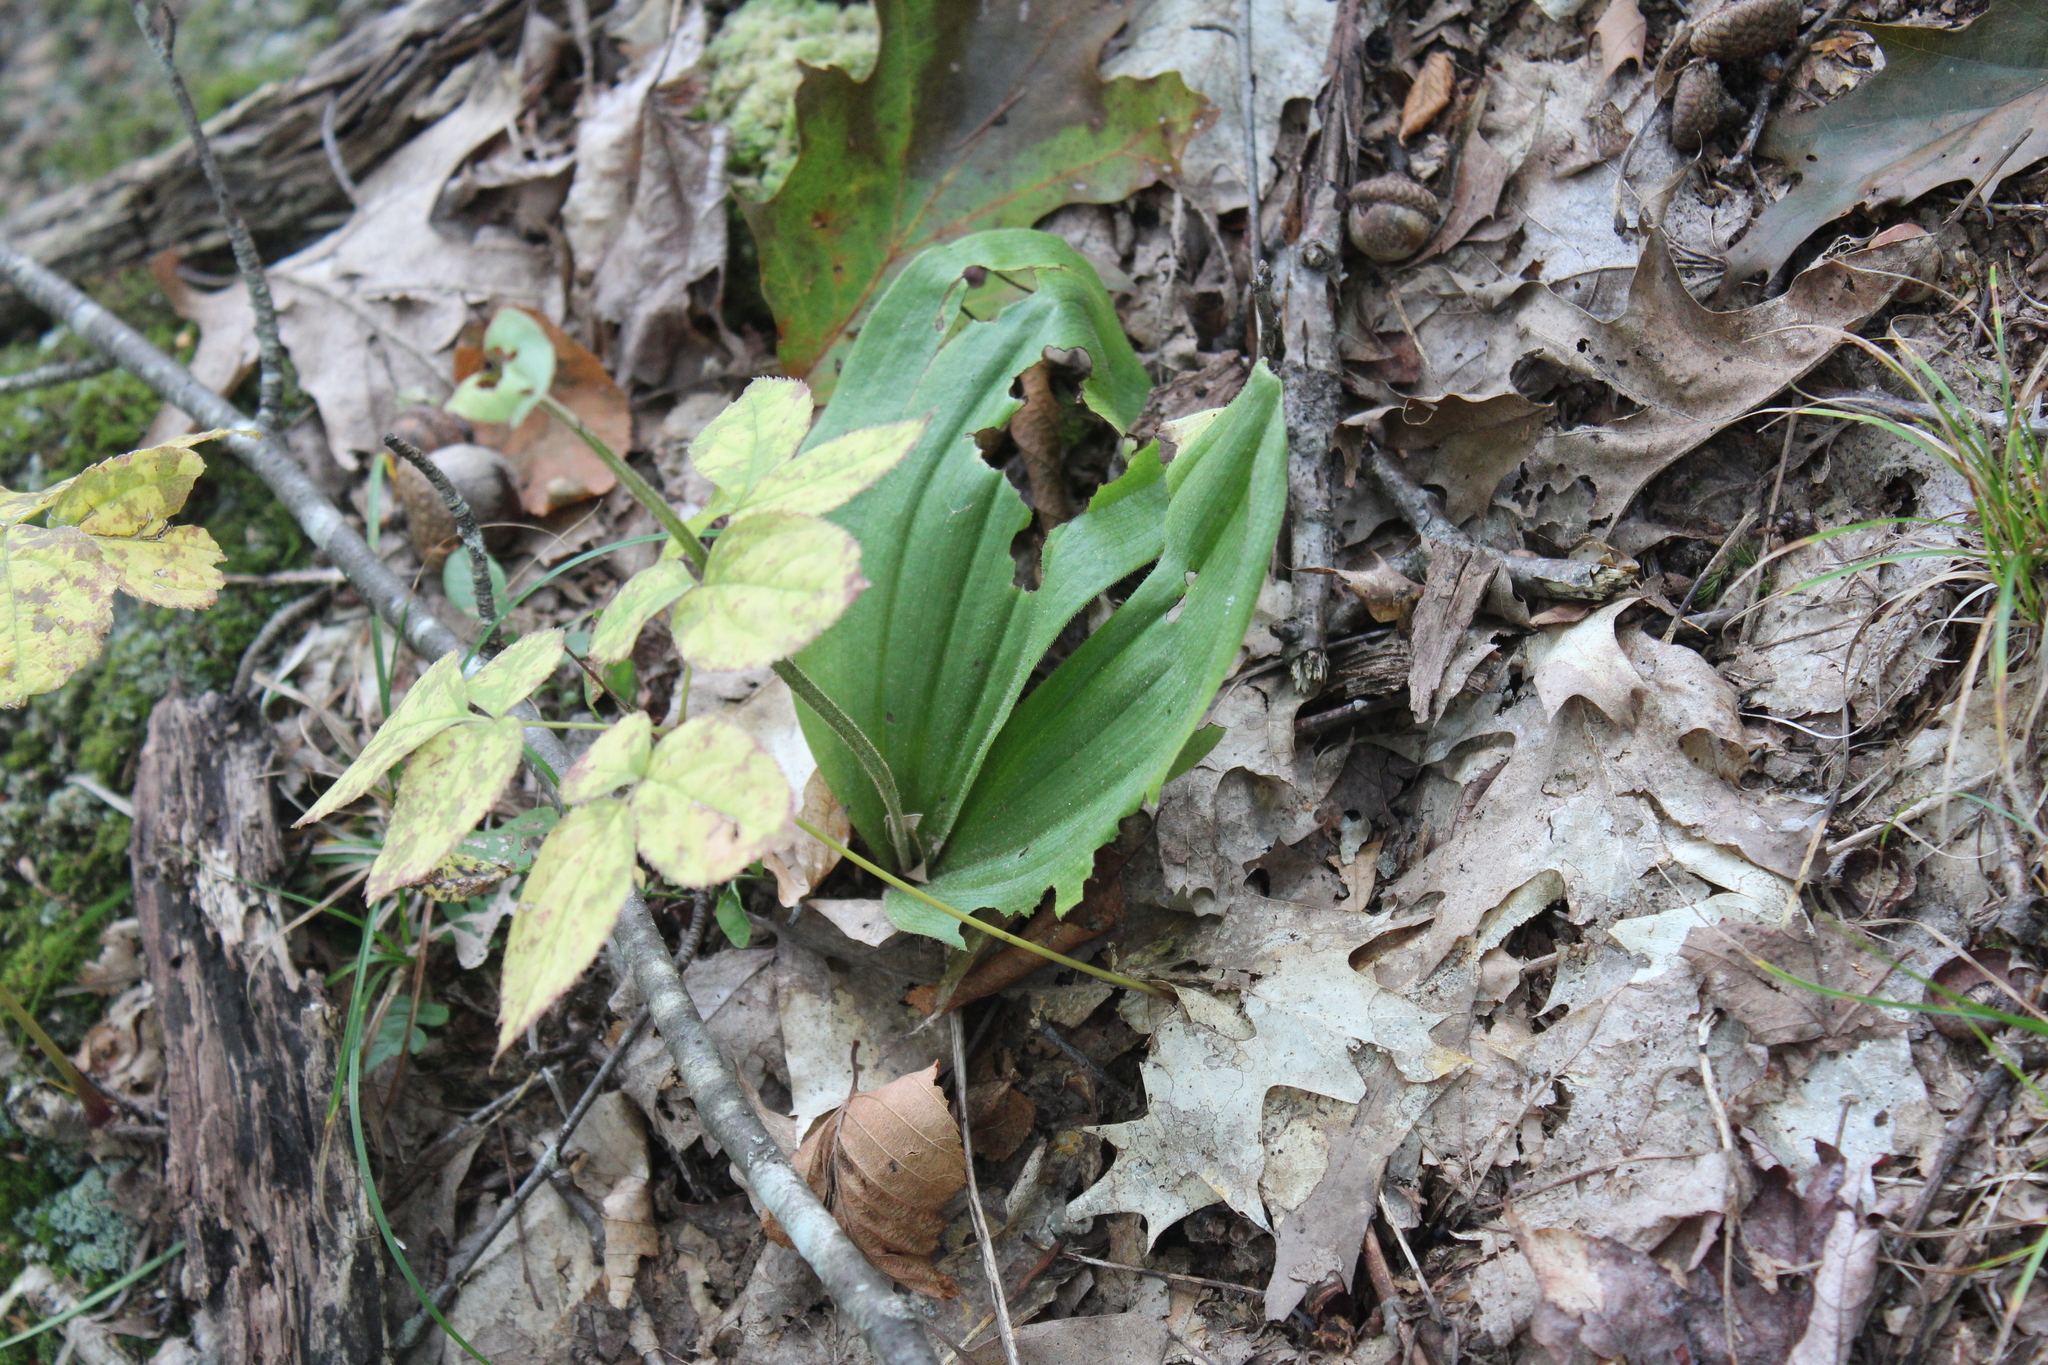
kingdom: Plantae
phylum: Tracheophyta
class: Liliopsida
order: Asparagales
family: Orchidaceae
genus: Cypripedium
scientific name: Cypripedium acaule
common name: Pink lady's-slipper
